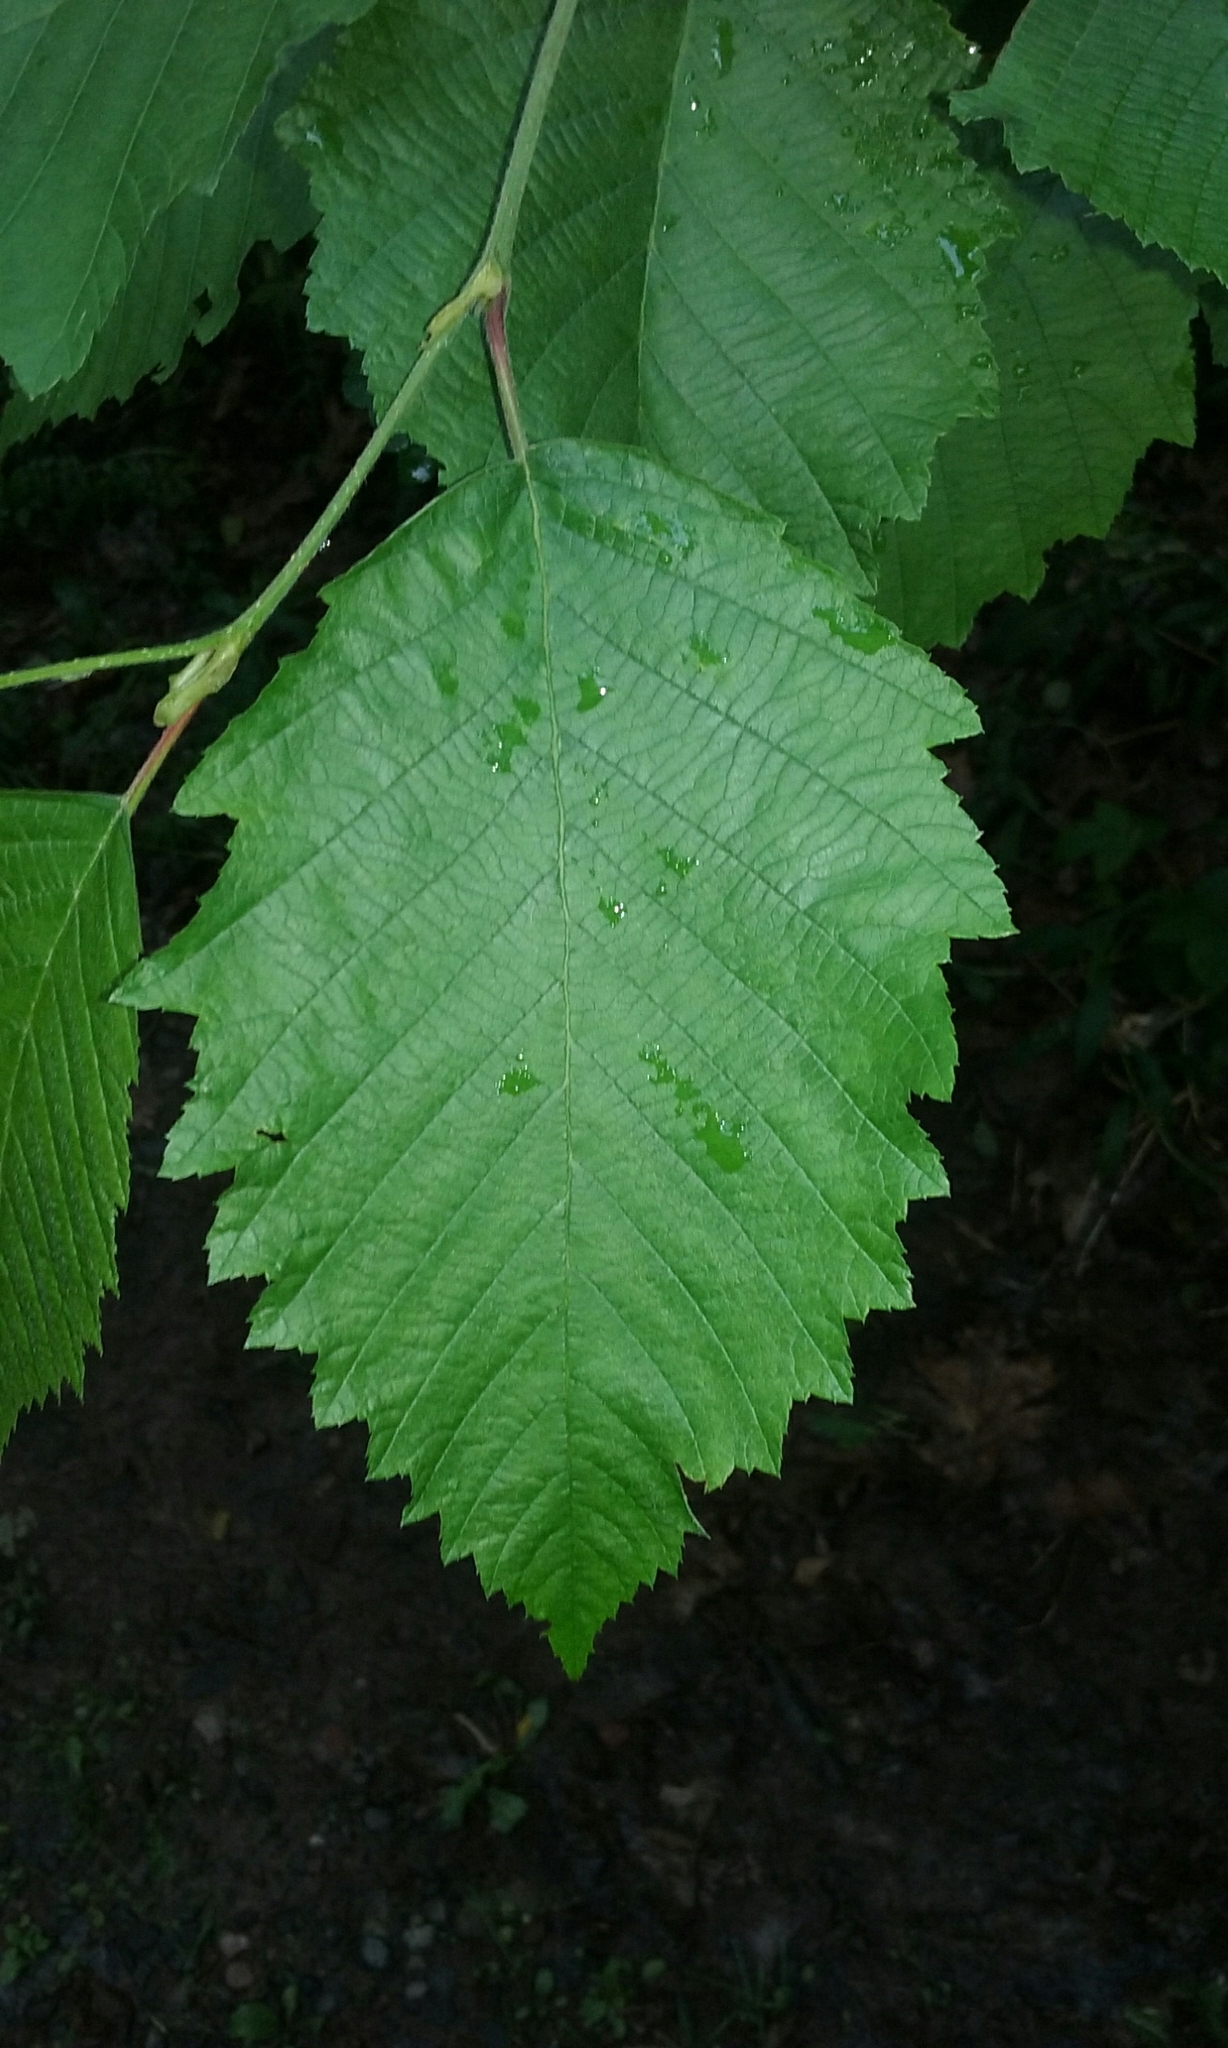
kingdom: Plantae
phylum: Tracheophyta
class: Magnoliopsida
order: Fagales
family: Betulaceae
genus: Alnus
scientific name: Alnus incana
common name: Grey alder
